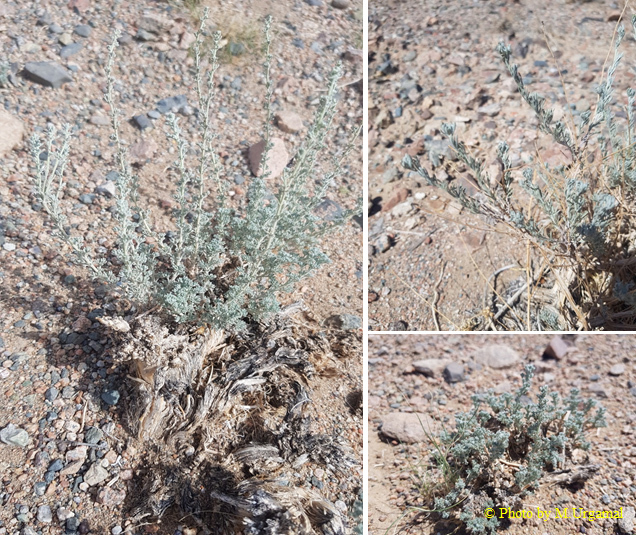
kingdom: Plantae
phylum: Tracheophyta
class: Magnoliopsida
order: Asterales
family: Asteraceae
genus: Artemisia
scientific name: Artemisia xerophytica
